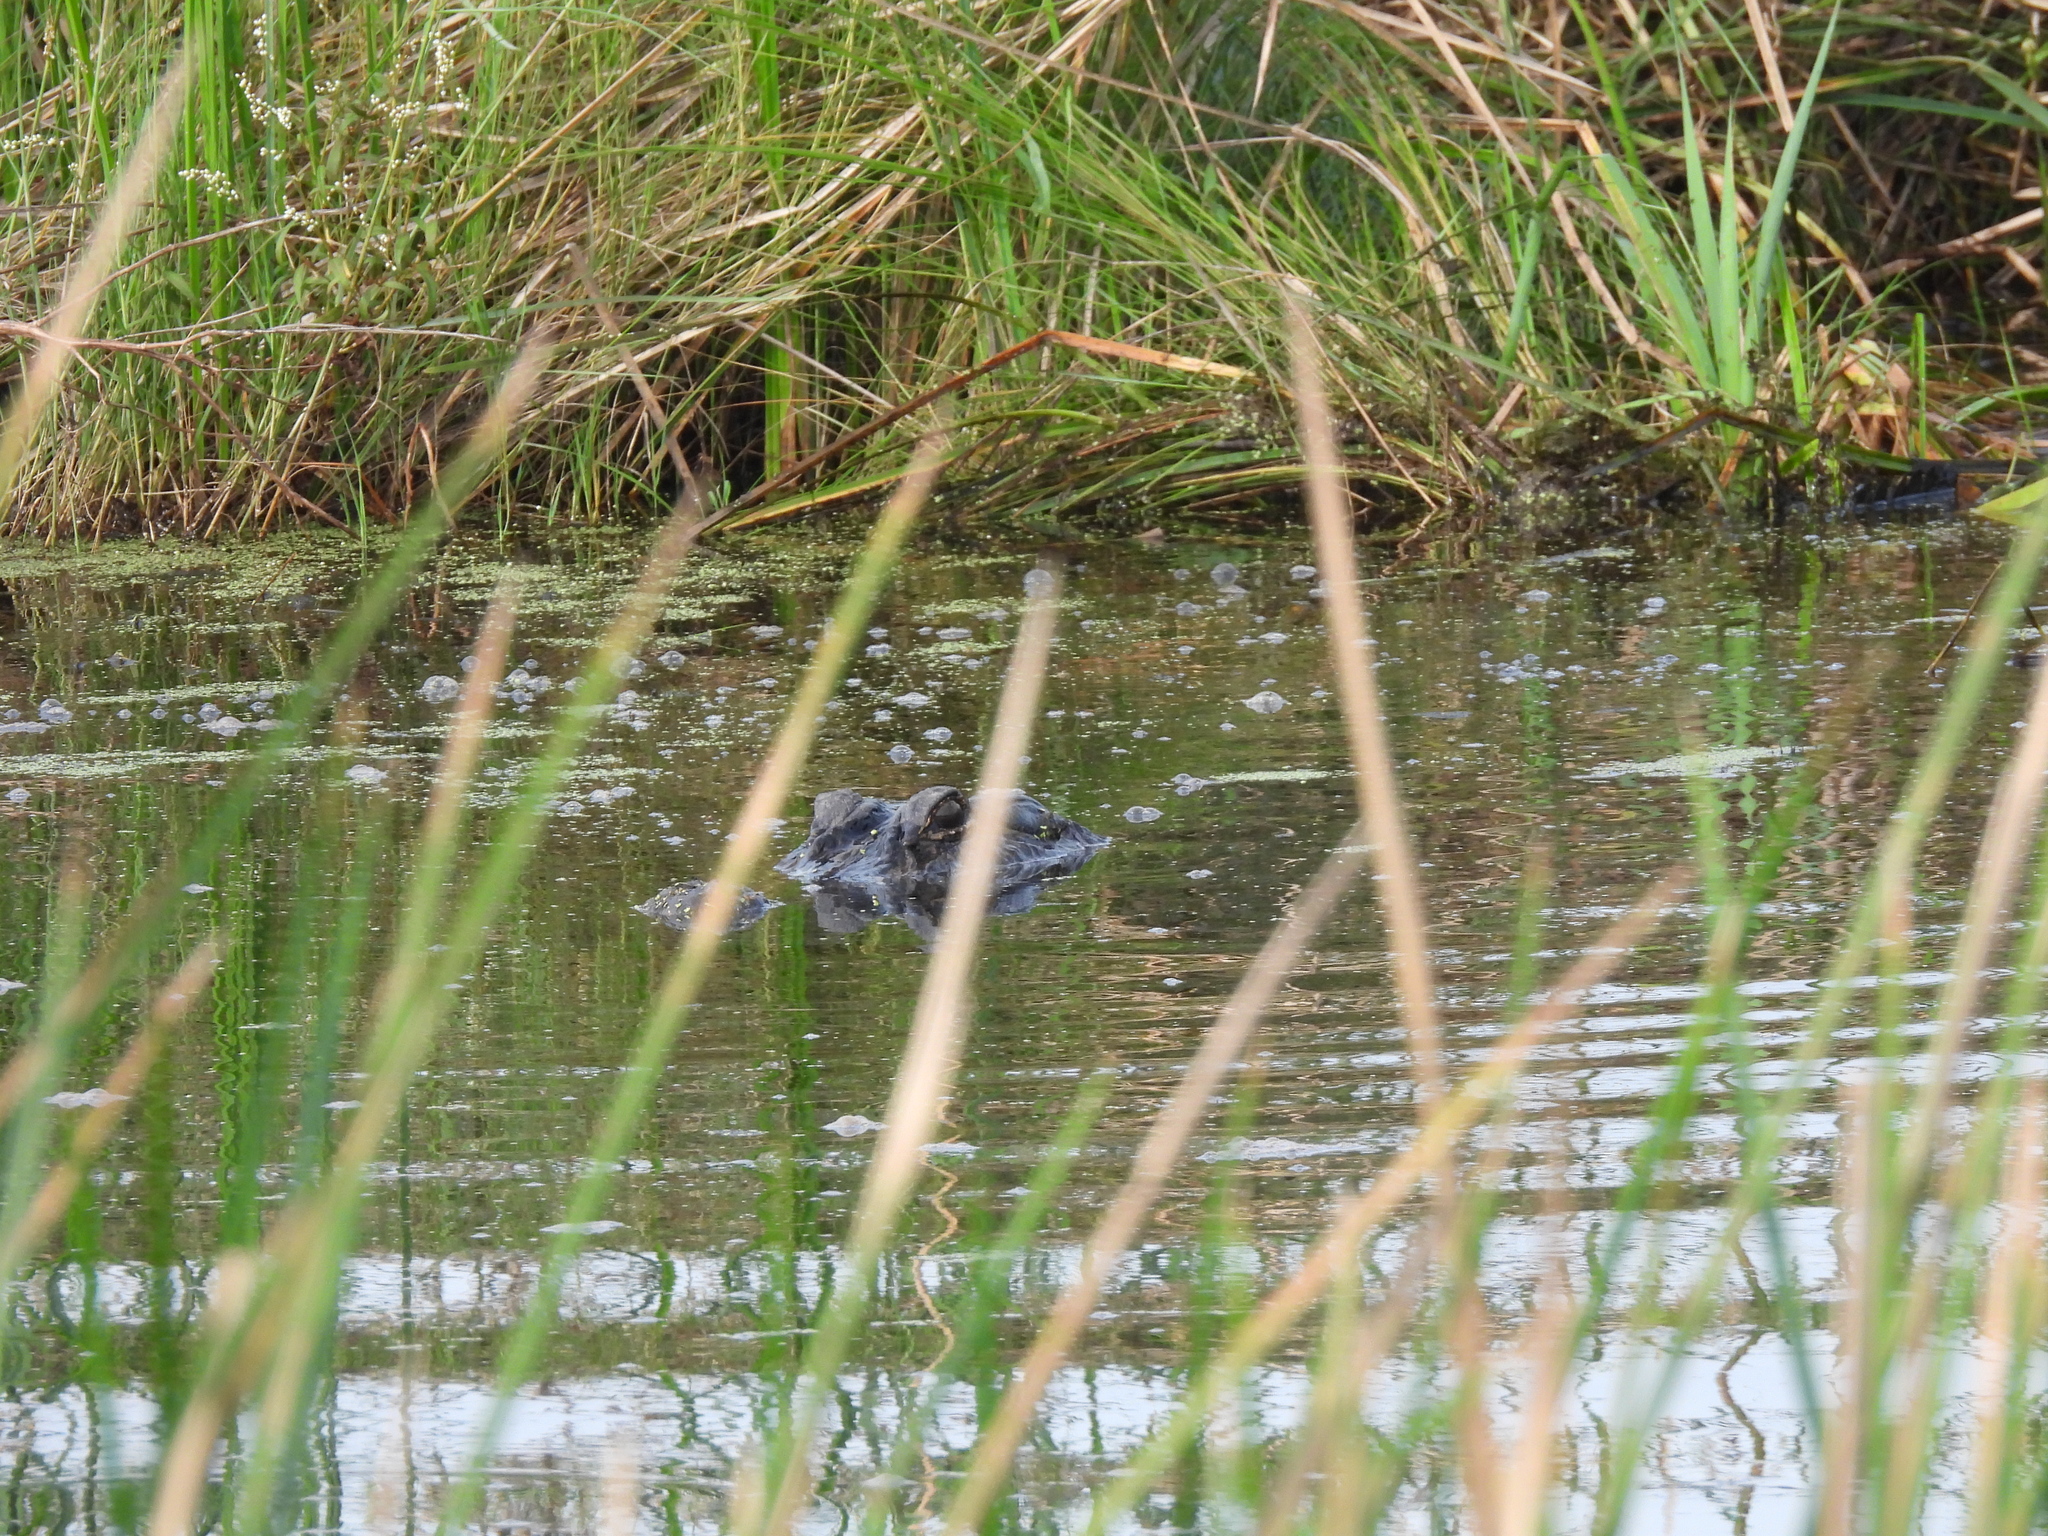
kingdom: Animalia
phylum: Chordata
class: Crocodylia
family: Alligatoridae
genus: Alligator
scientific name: Alligator mississippiensis
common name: American alligator
